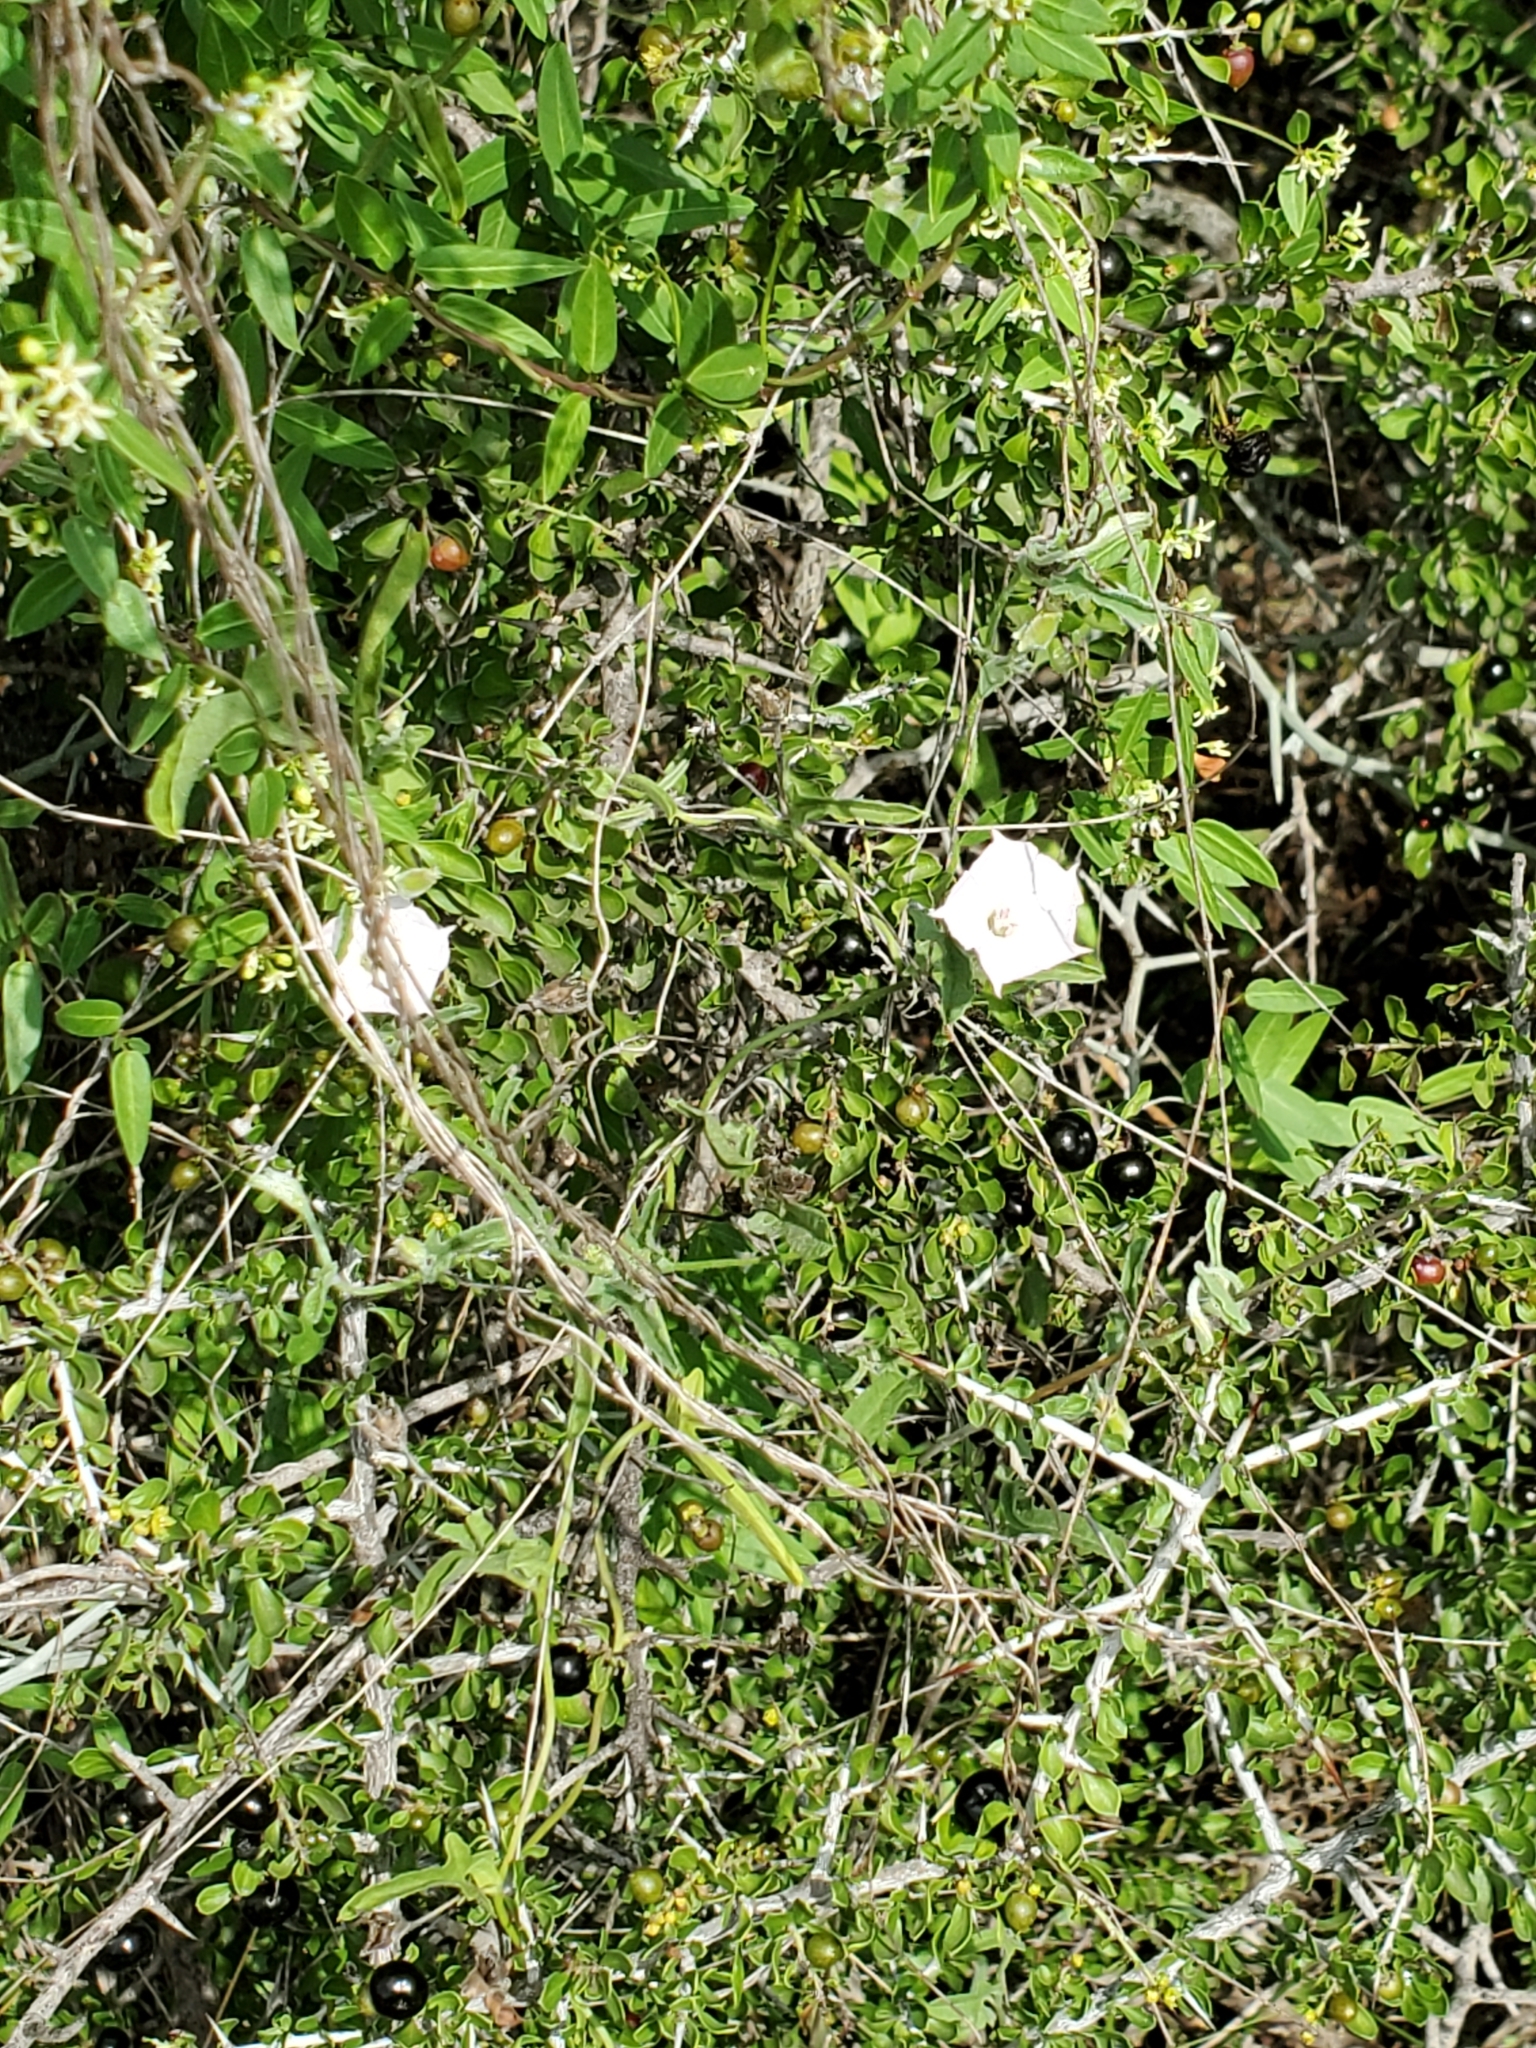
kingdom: Plantae
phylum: Tracheophyta
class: Magnoliopsida
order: Solanales
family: Convolvulaceae
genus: Convolvulus
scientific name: Convolvulus equitans
